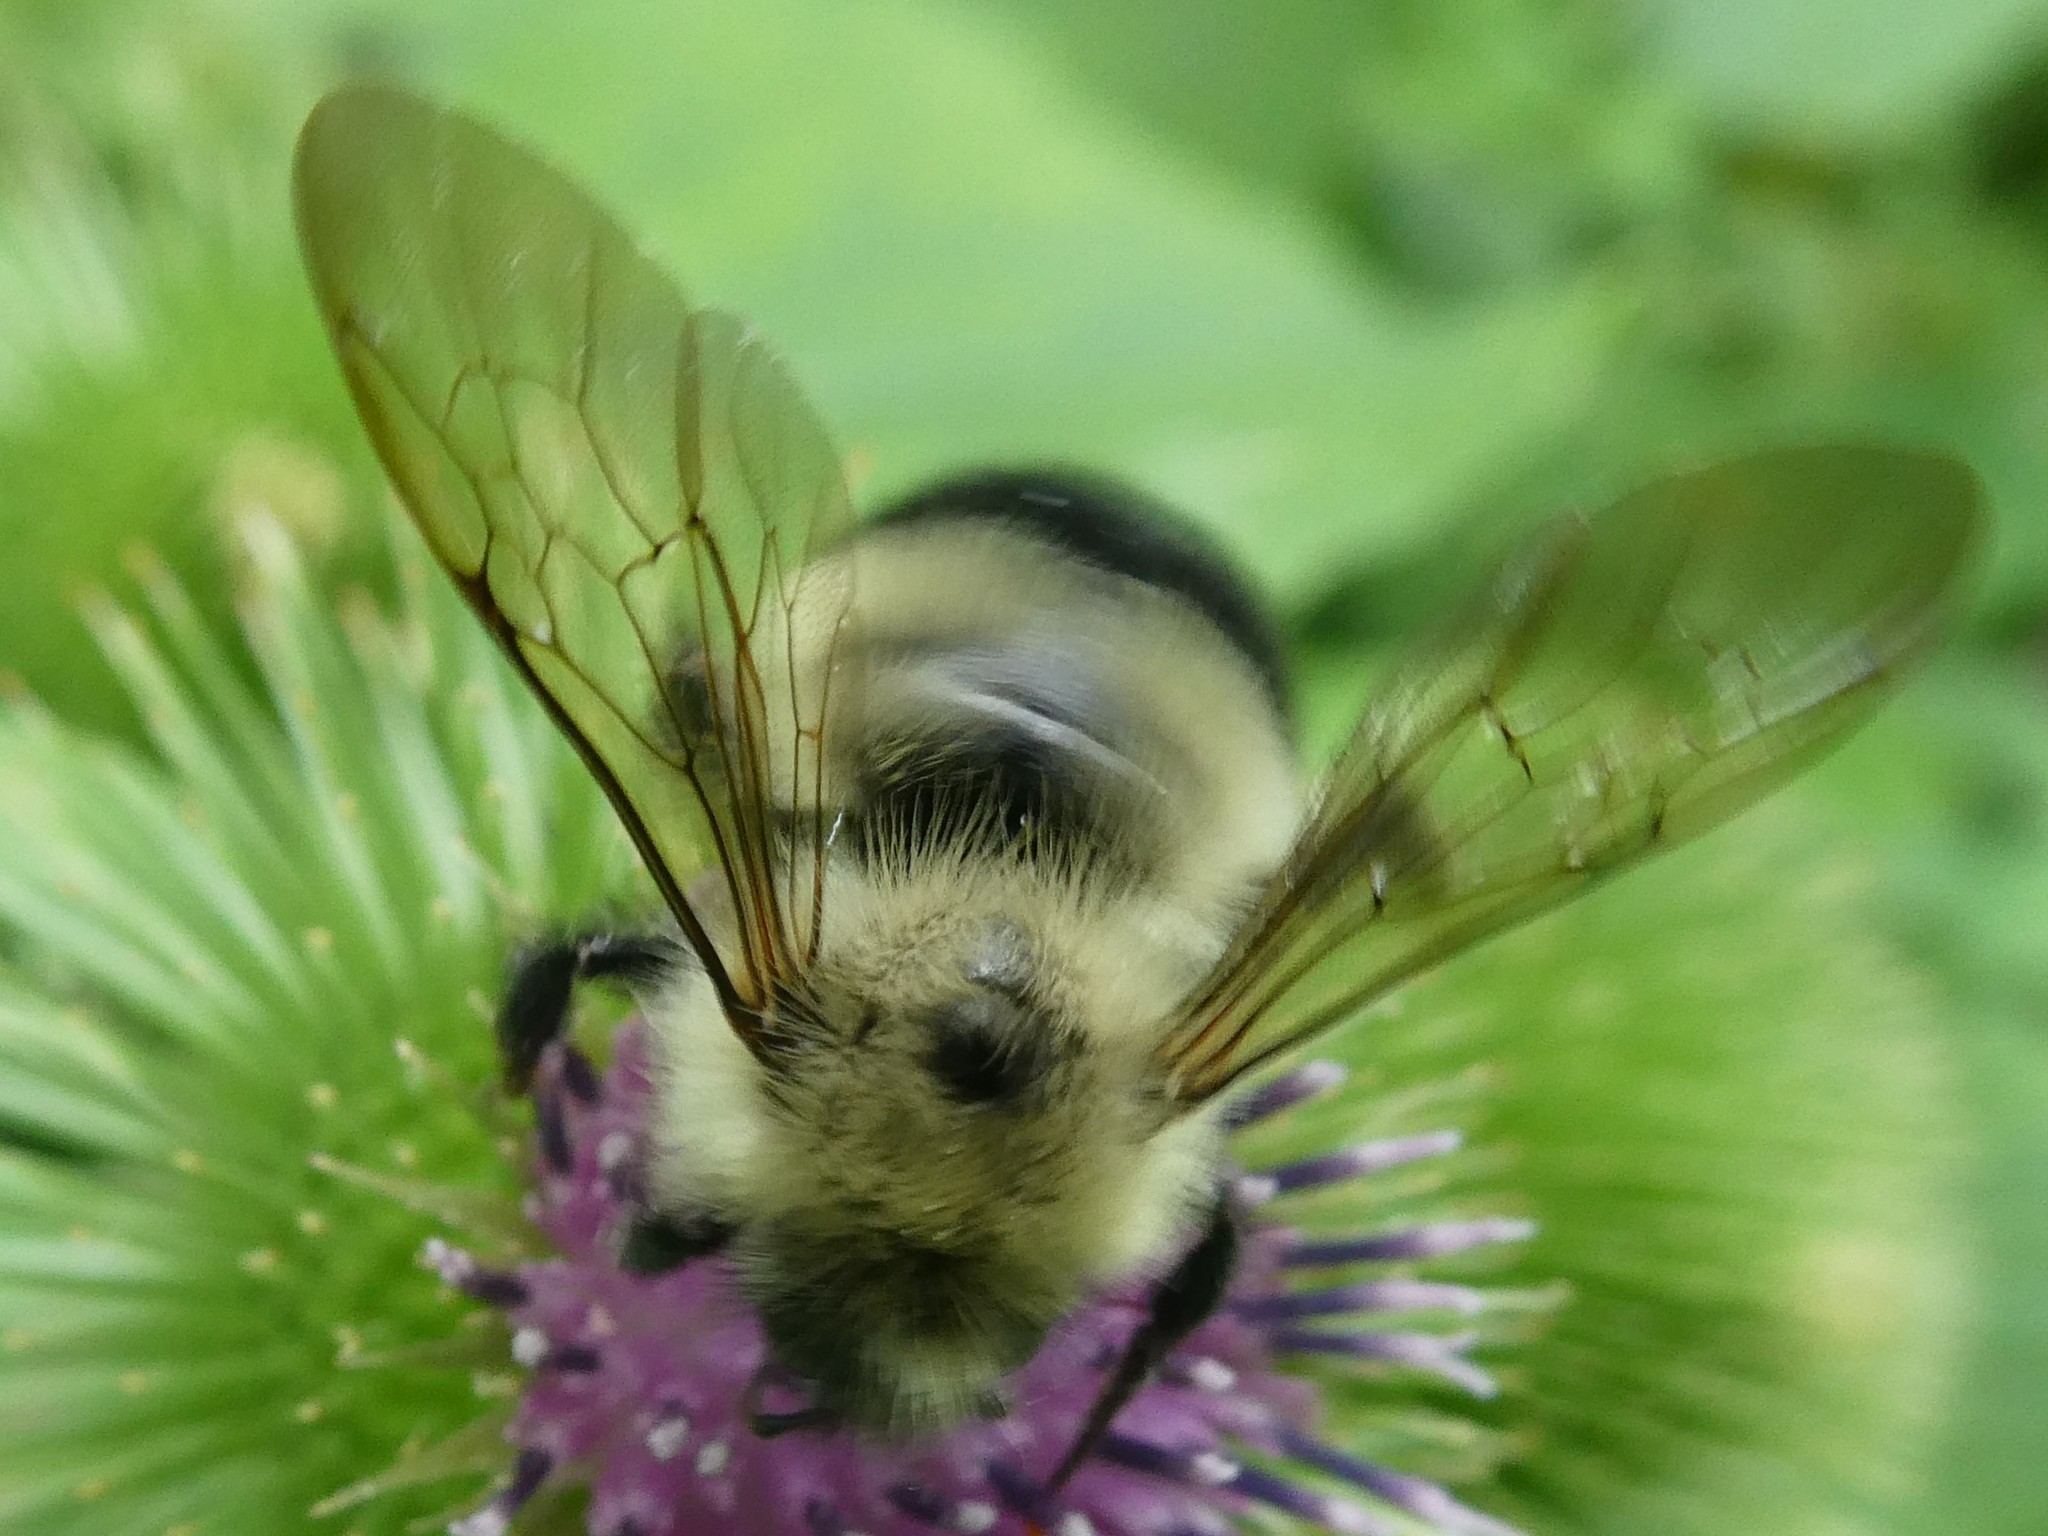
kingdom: Animalia
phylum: Arthropoda
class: Insecta
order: Hymenoptera
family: Apidae
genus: Pyrobombus
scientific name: Pyrobombus
